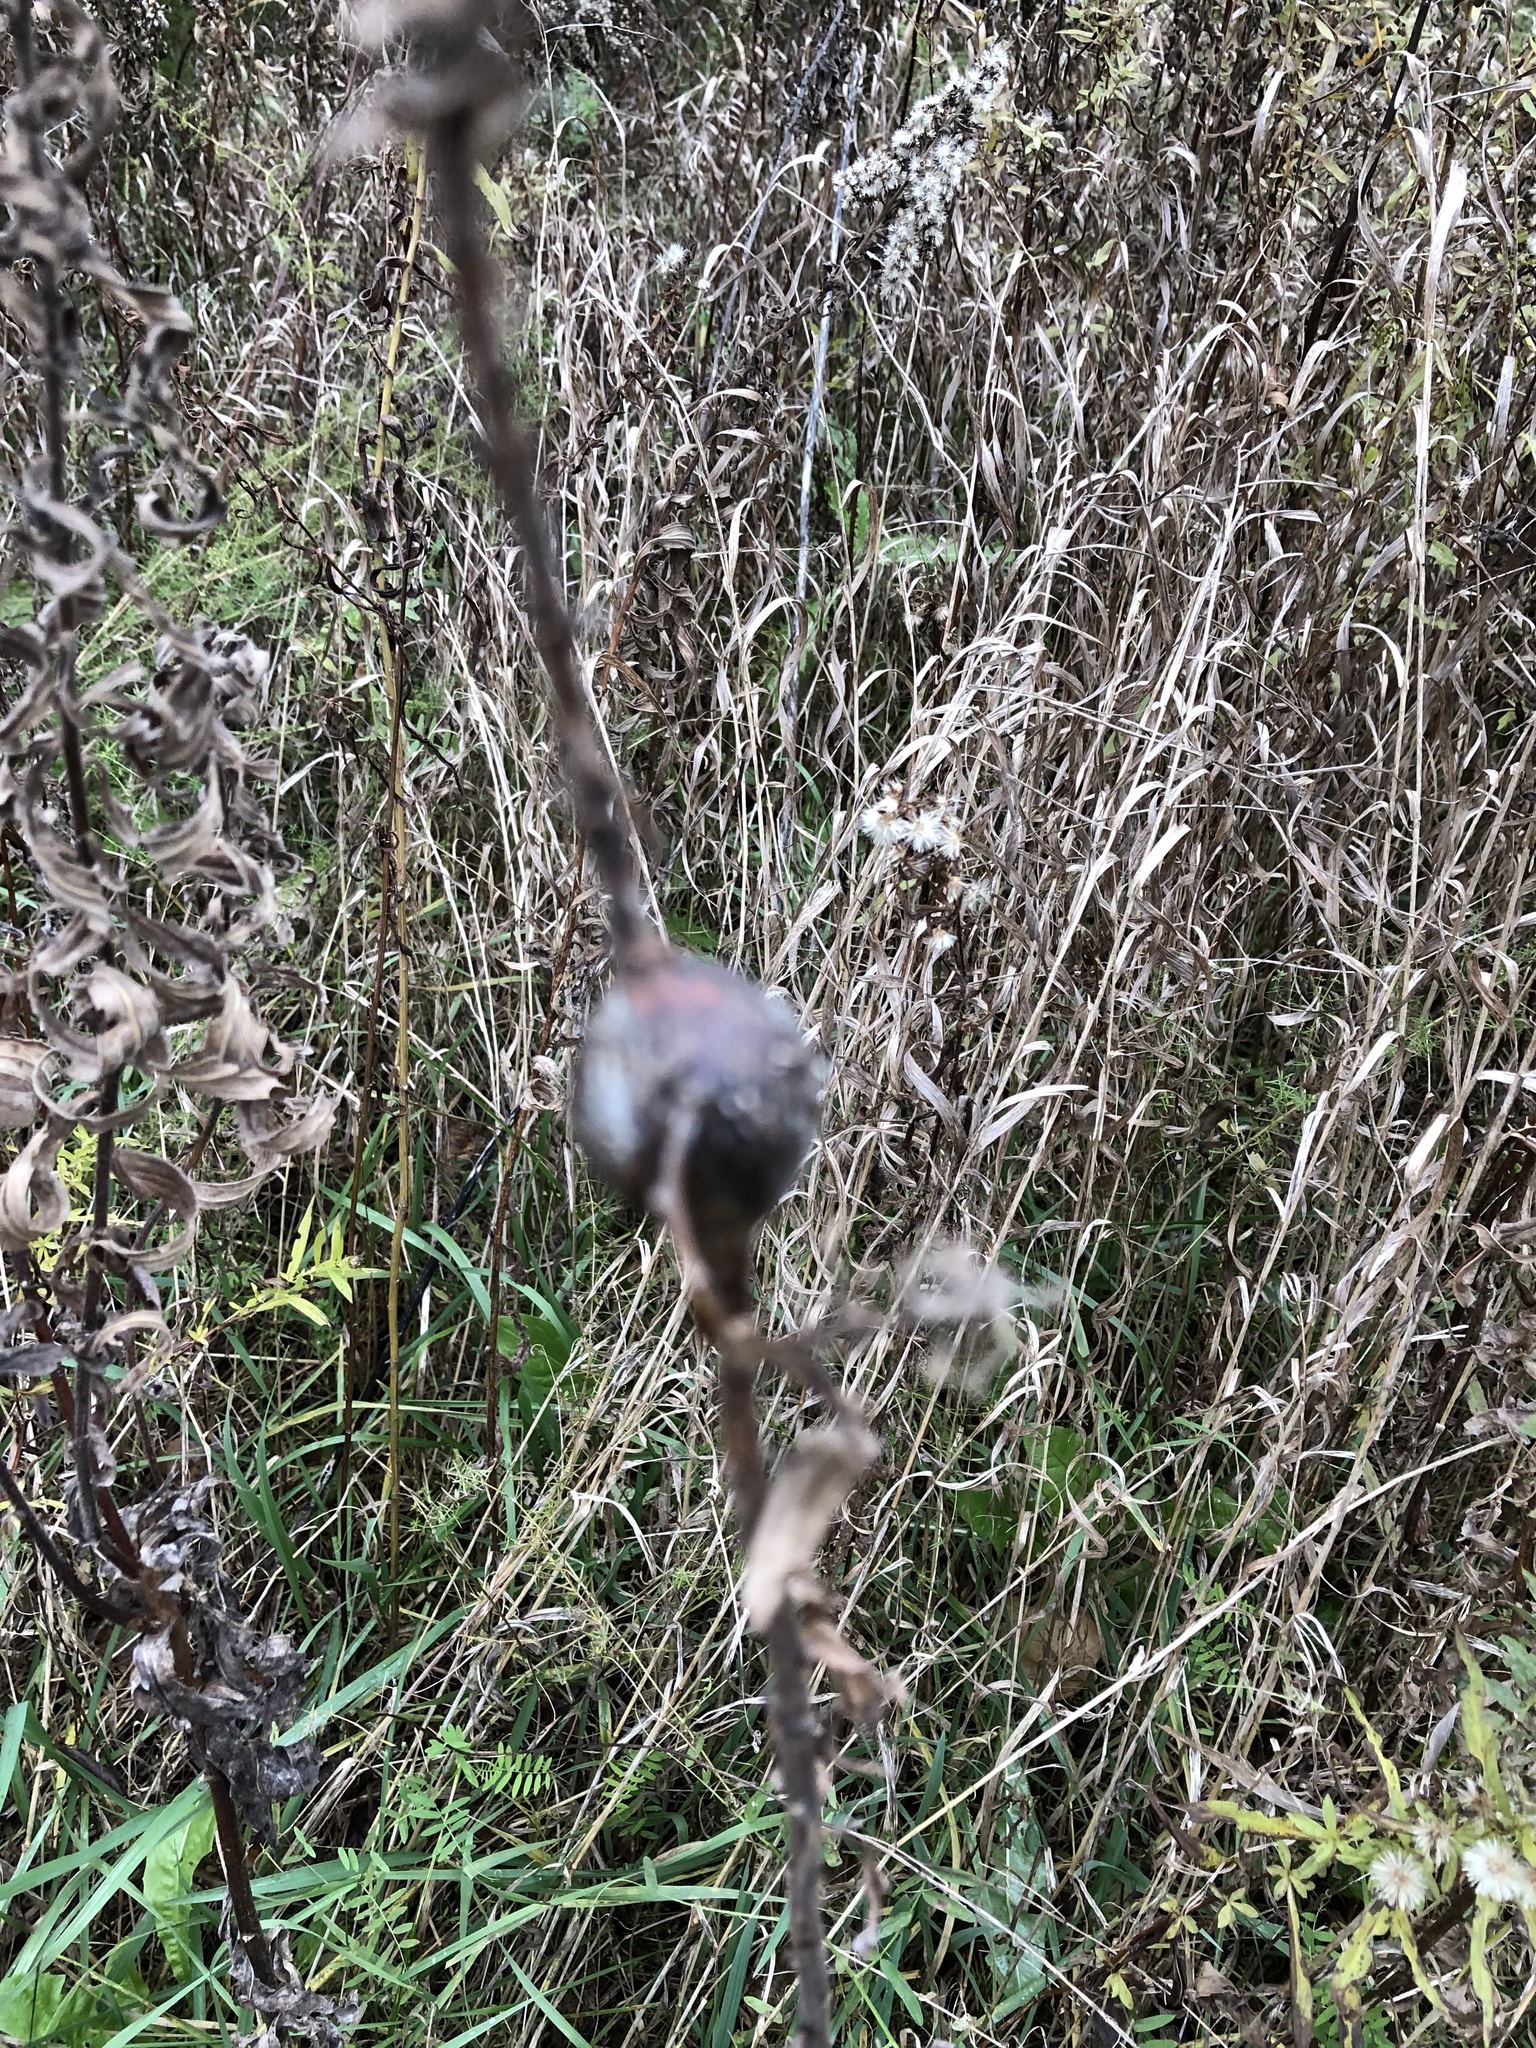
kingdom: Animalia
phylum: Arthropoda
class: Insecta
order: Diptera
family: Tephritidae
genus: Eurosta
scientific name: Eurosta solidaginis
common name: Goldenrod gall fly
